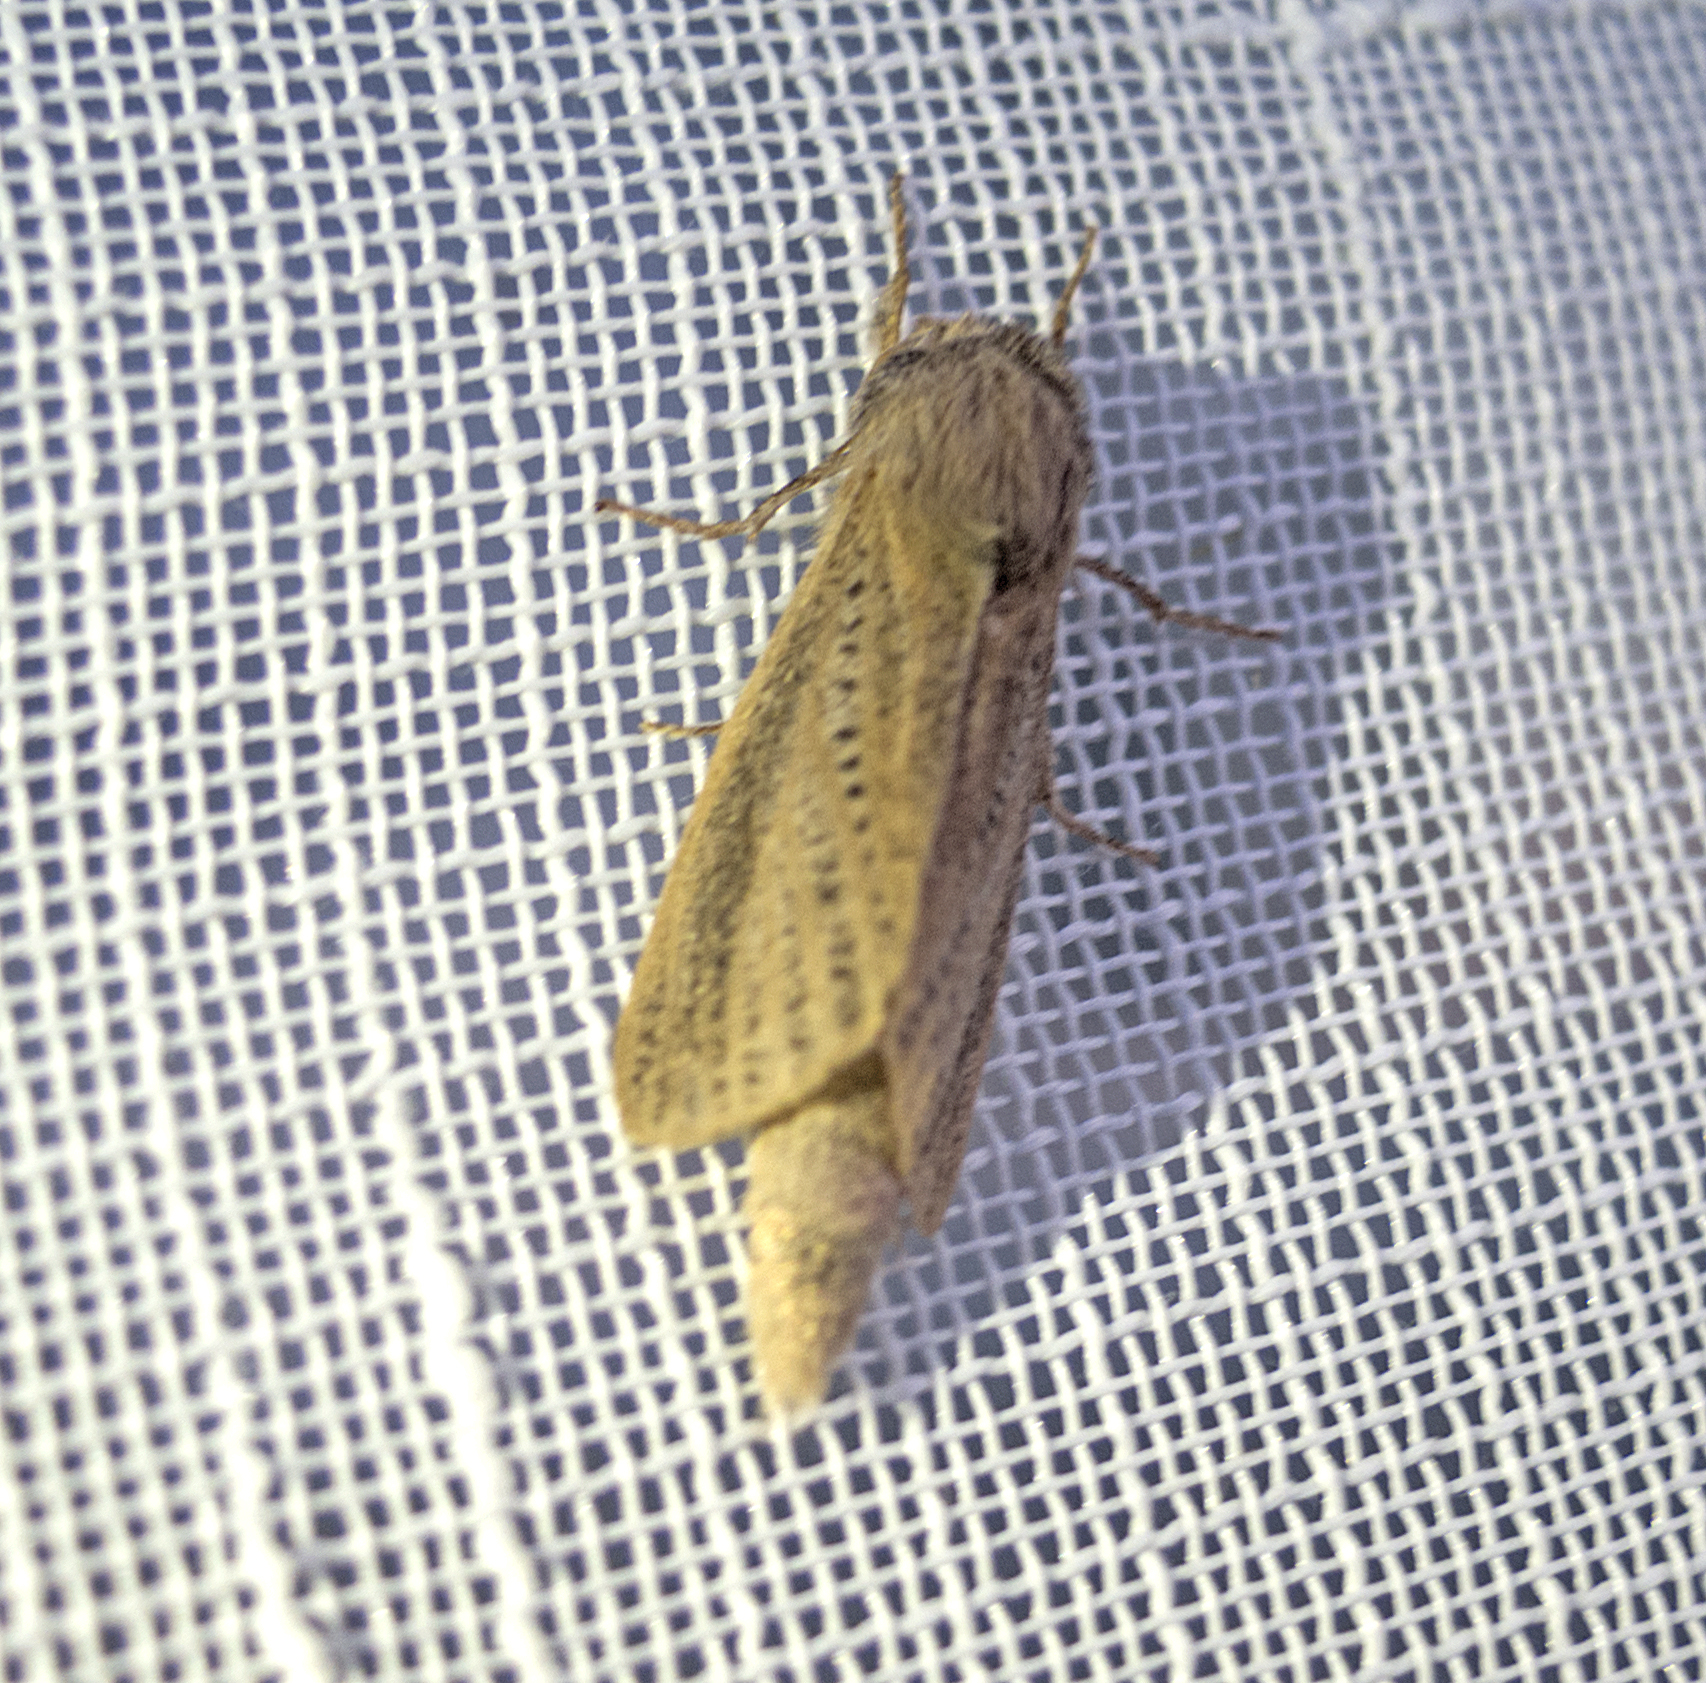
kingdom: Animalia
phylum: Arthropoda
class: Insecta
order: Lepidoptera
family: Cossidae
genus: Phragmataecia
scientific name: Phragmataecia castaneae
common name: Reed leopard
